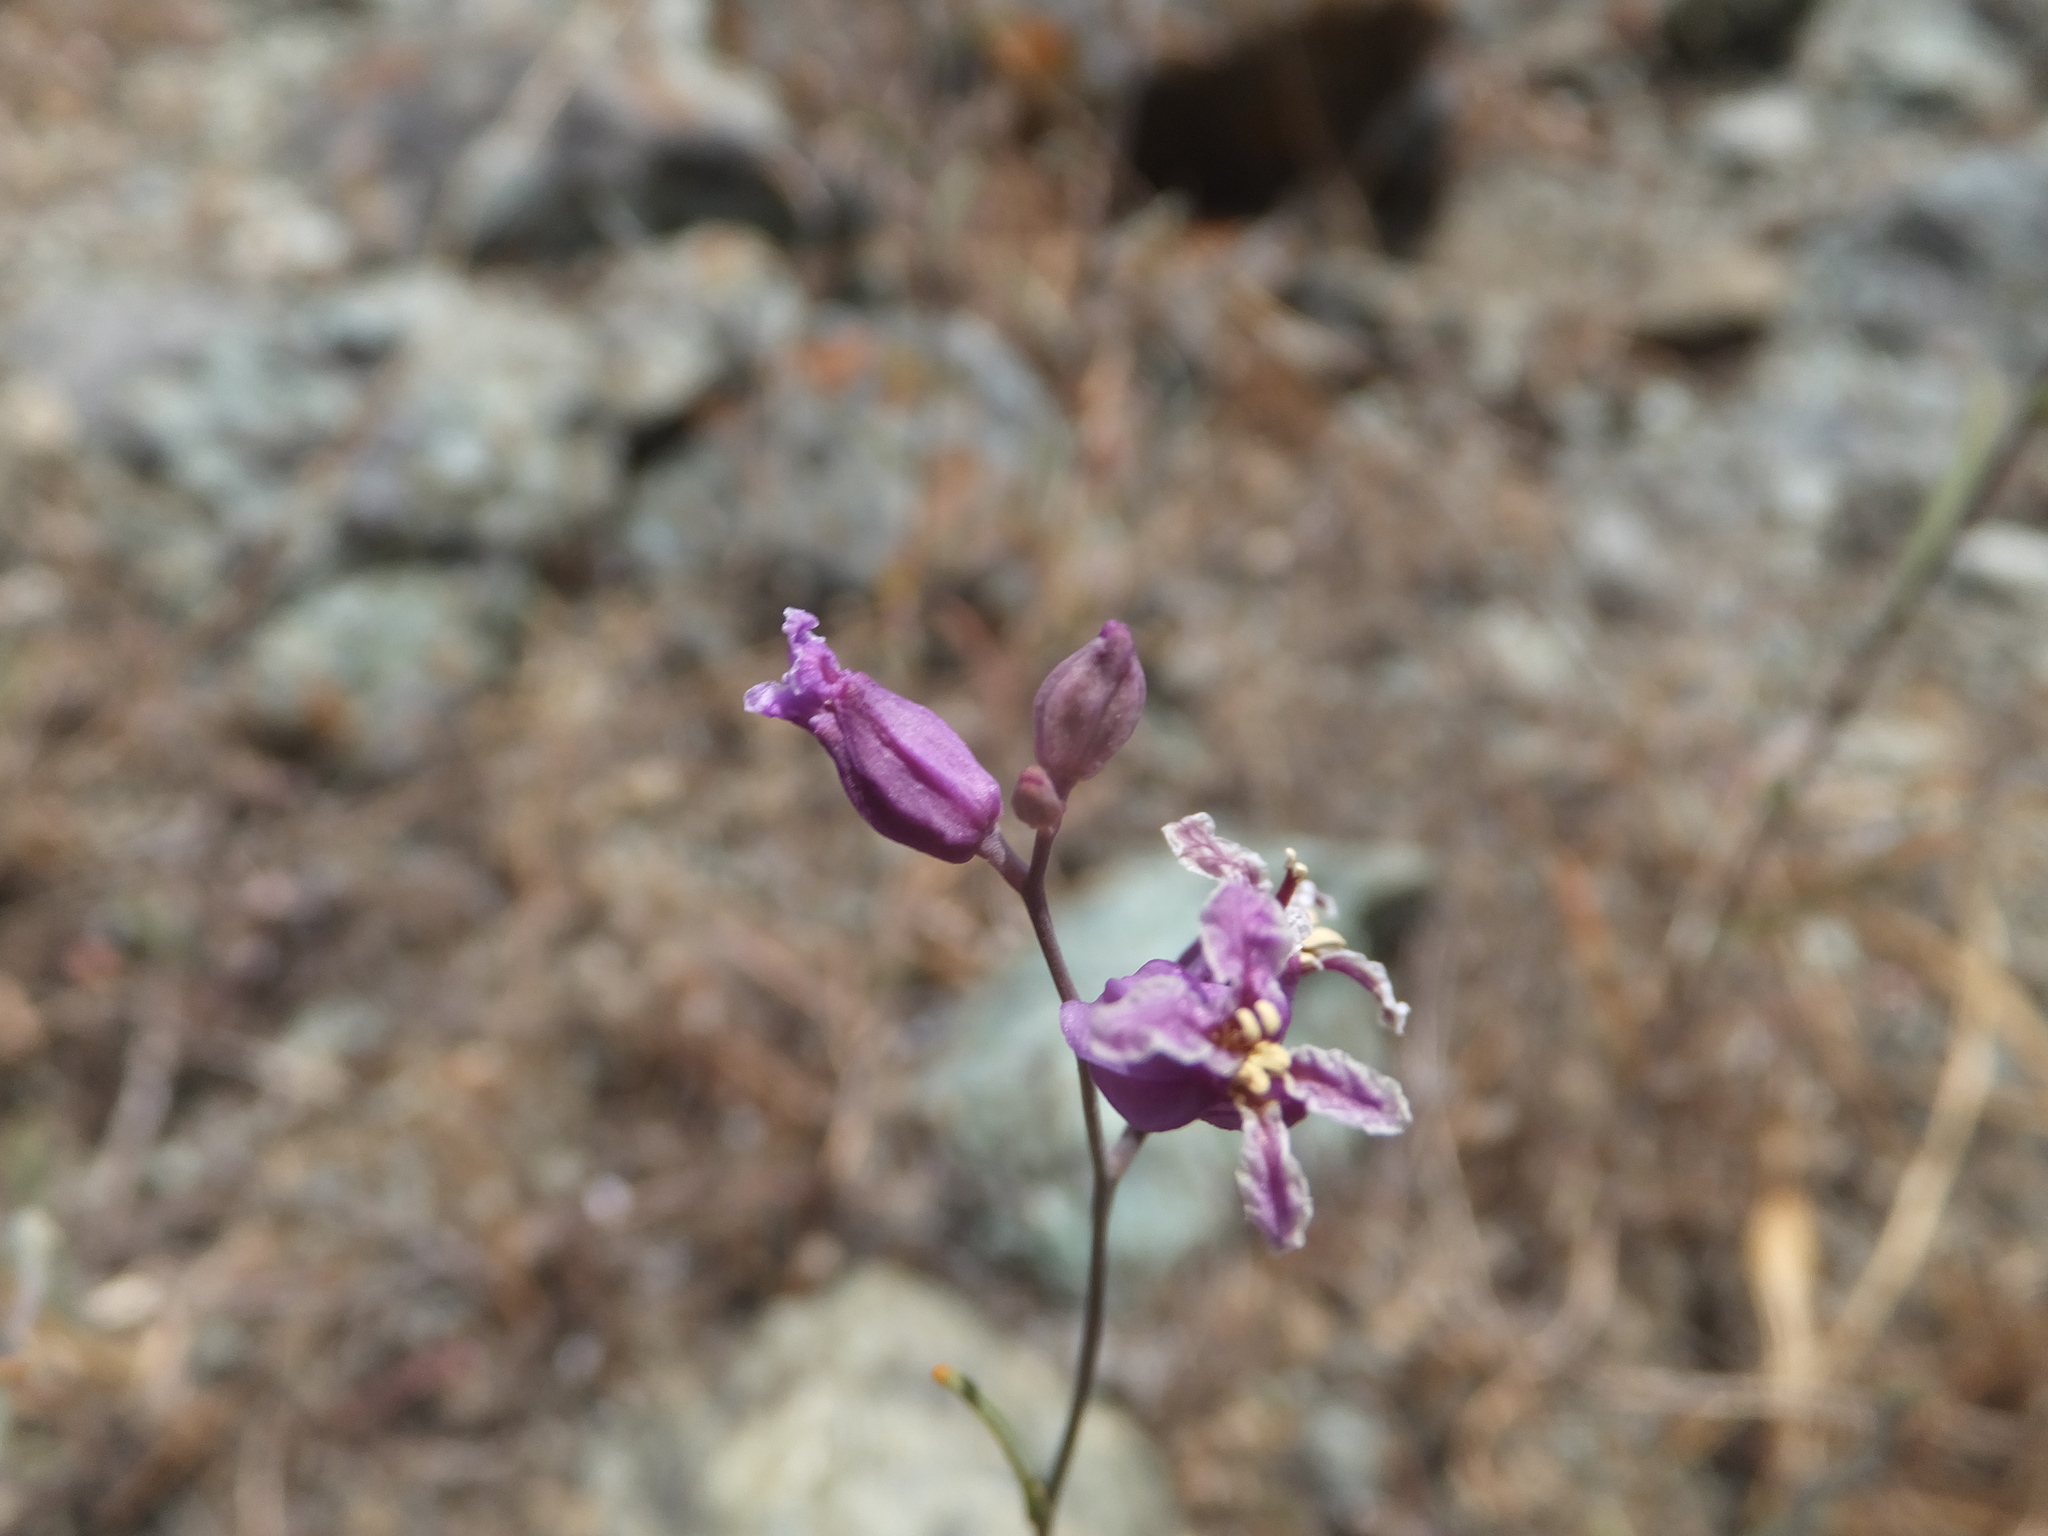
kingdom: Plantae
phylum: Tracheophyta
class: Magnoliopsida
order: Brassicales
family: Brassicaceae
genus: Streptanthus
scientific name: Streptanthus glandulosus
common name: Jewel-flower
